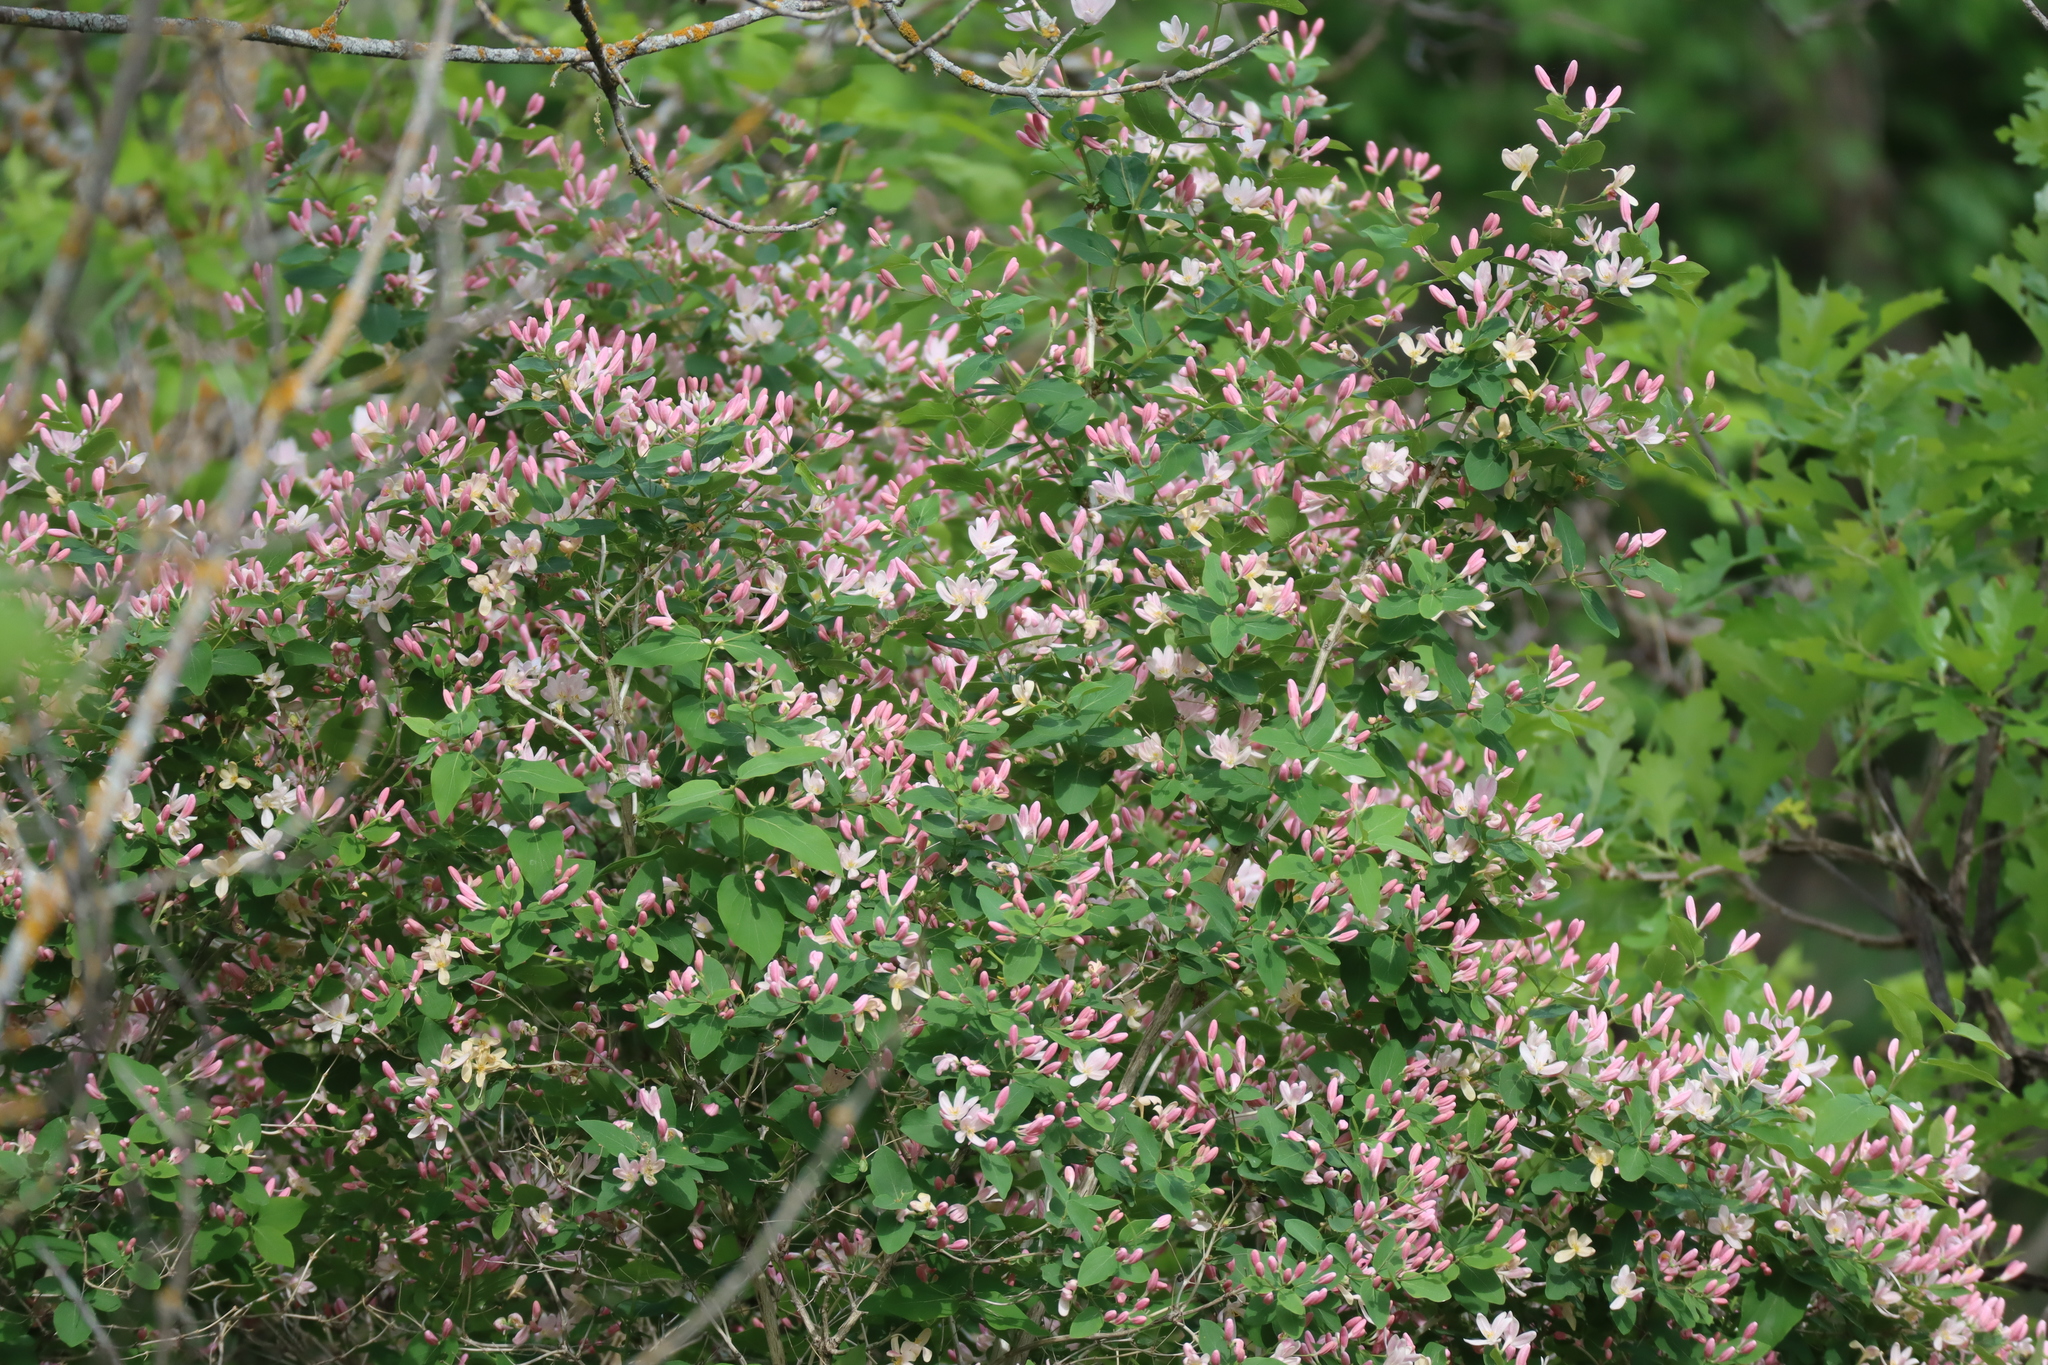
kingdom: Plantae
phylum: Tracheophyta
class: Magnoliopsida
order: Dipsacales
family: Caprifoliaceae
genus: Lonicera
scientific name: Lonicera tatarica
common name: Tatarian honeysuckle
